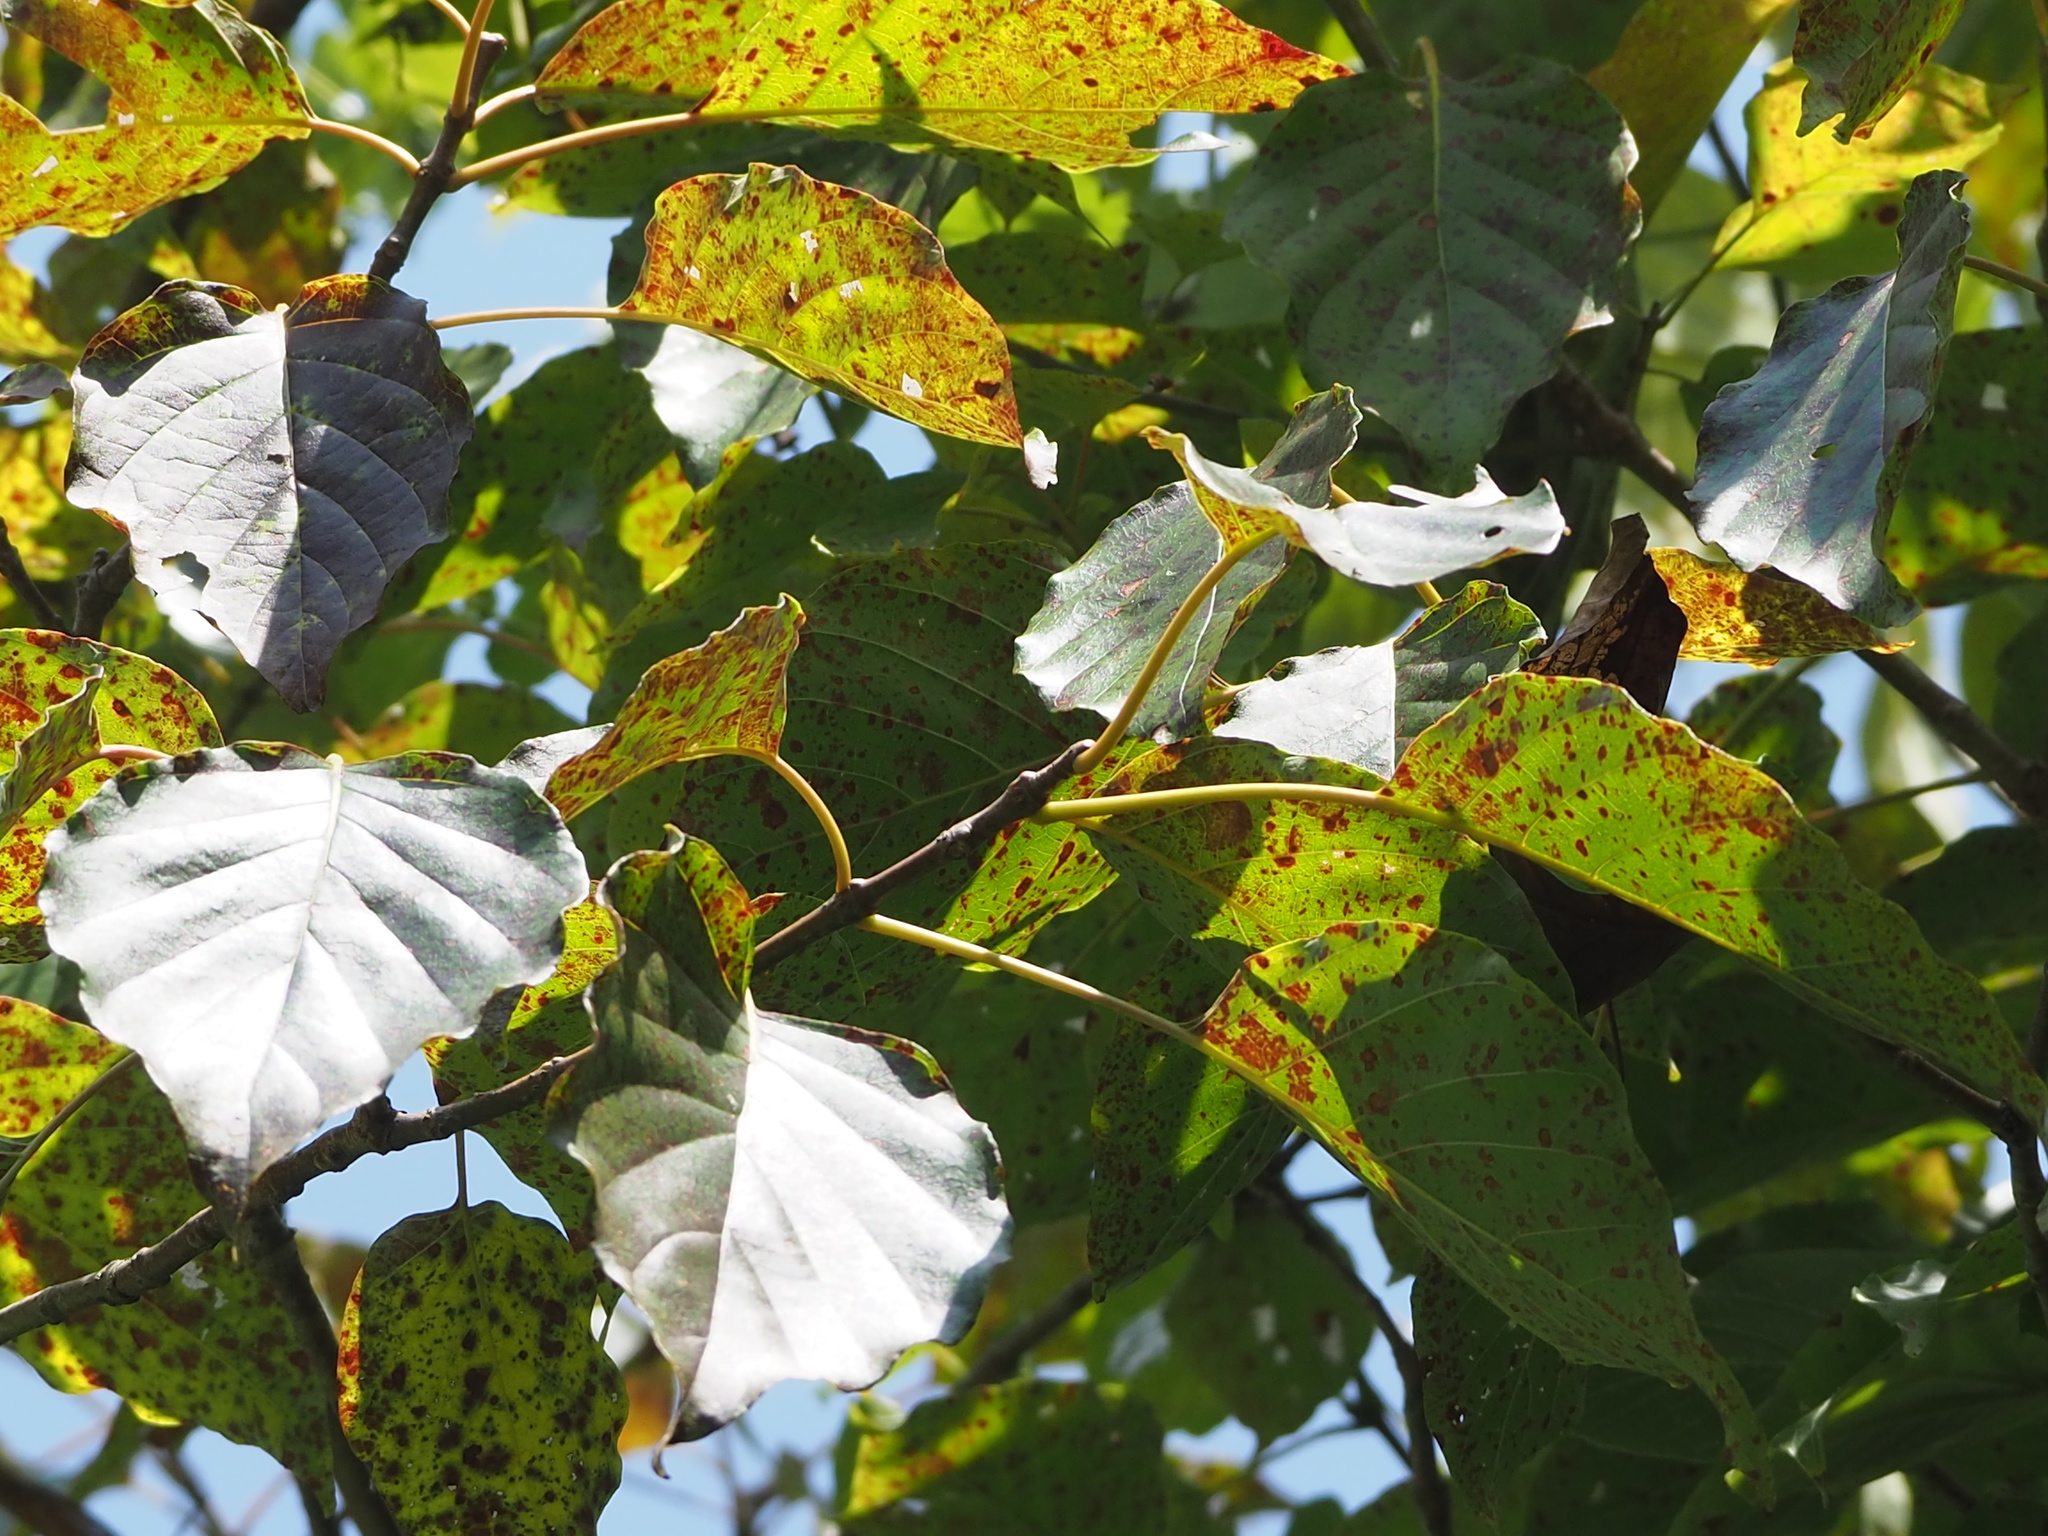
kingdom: Plantae
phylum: Tracheophyta
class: Magnoliopsida
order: Gentianales
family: Rubiaceae
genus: Adina
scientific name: Adina racemosa
